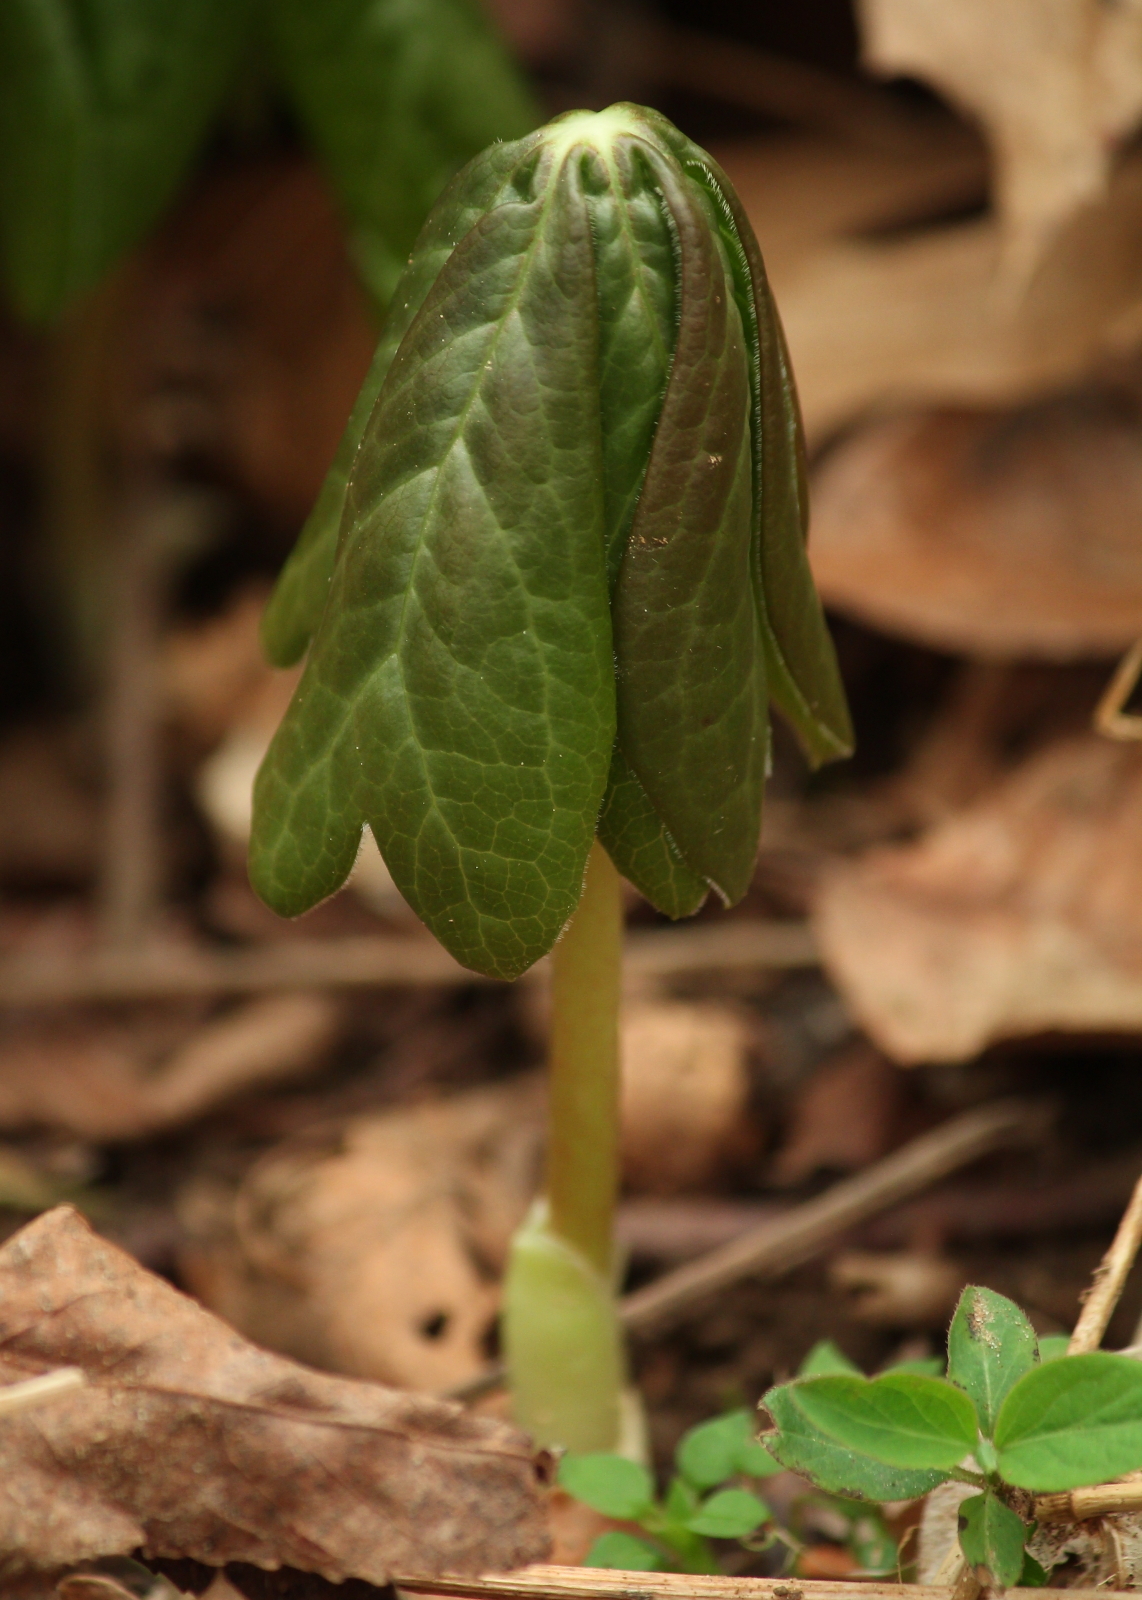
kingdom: Plantae
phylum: Tracheophyta
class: Magnoliopsida
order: Ranunculales
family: Berberidaceae
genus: Podophyllum
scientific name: Podophyllum peltatum
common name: Wild mandrake
